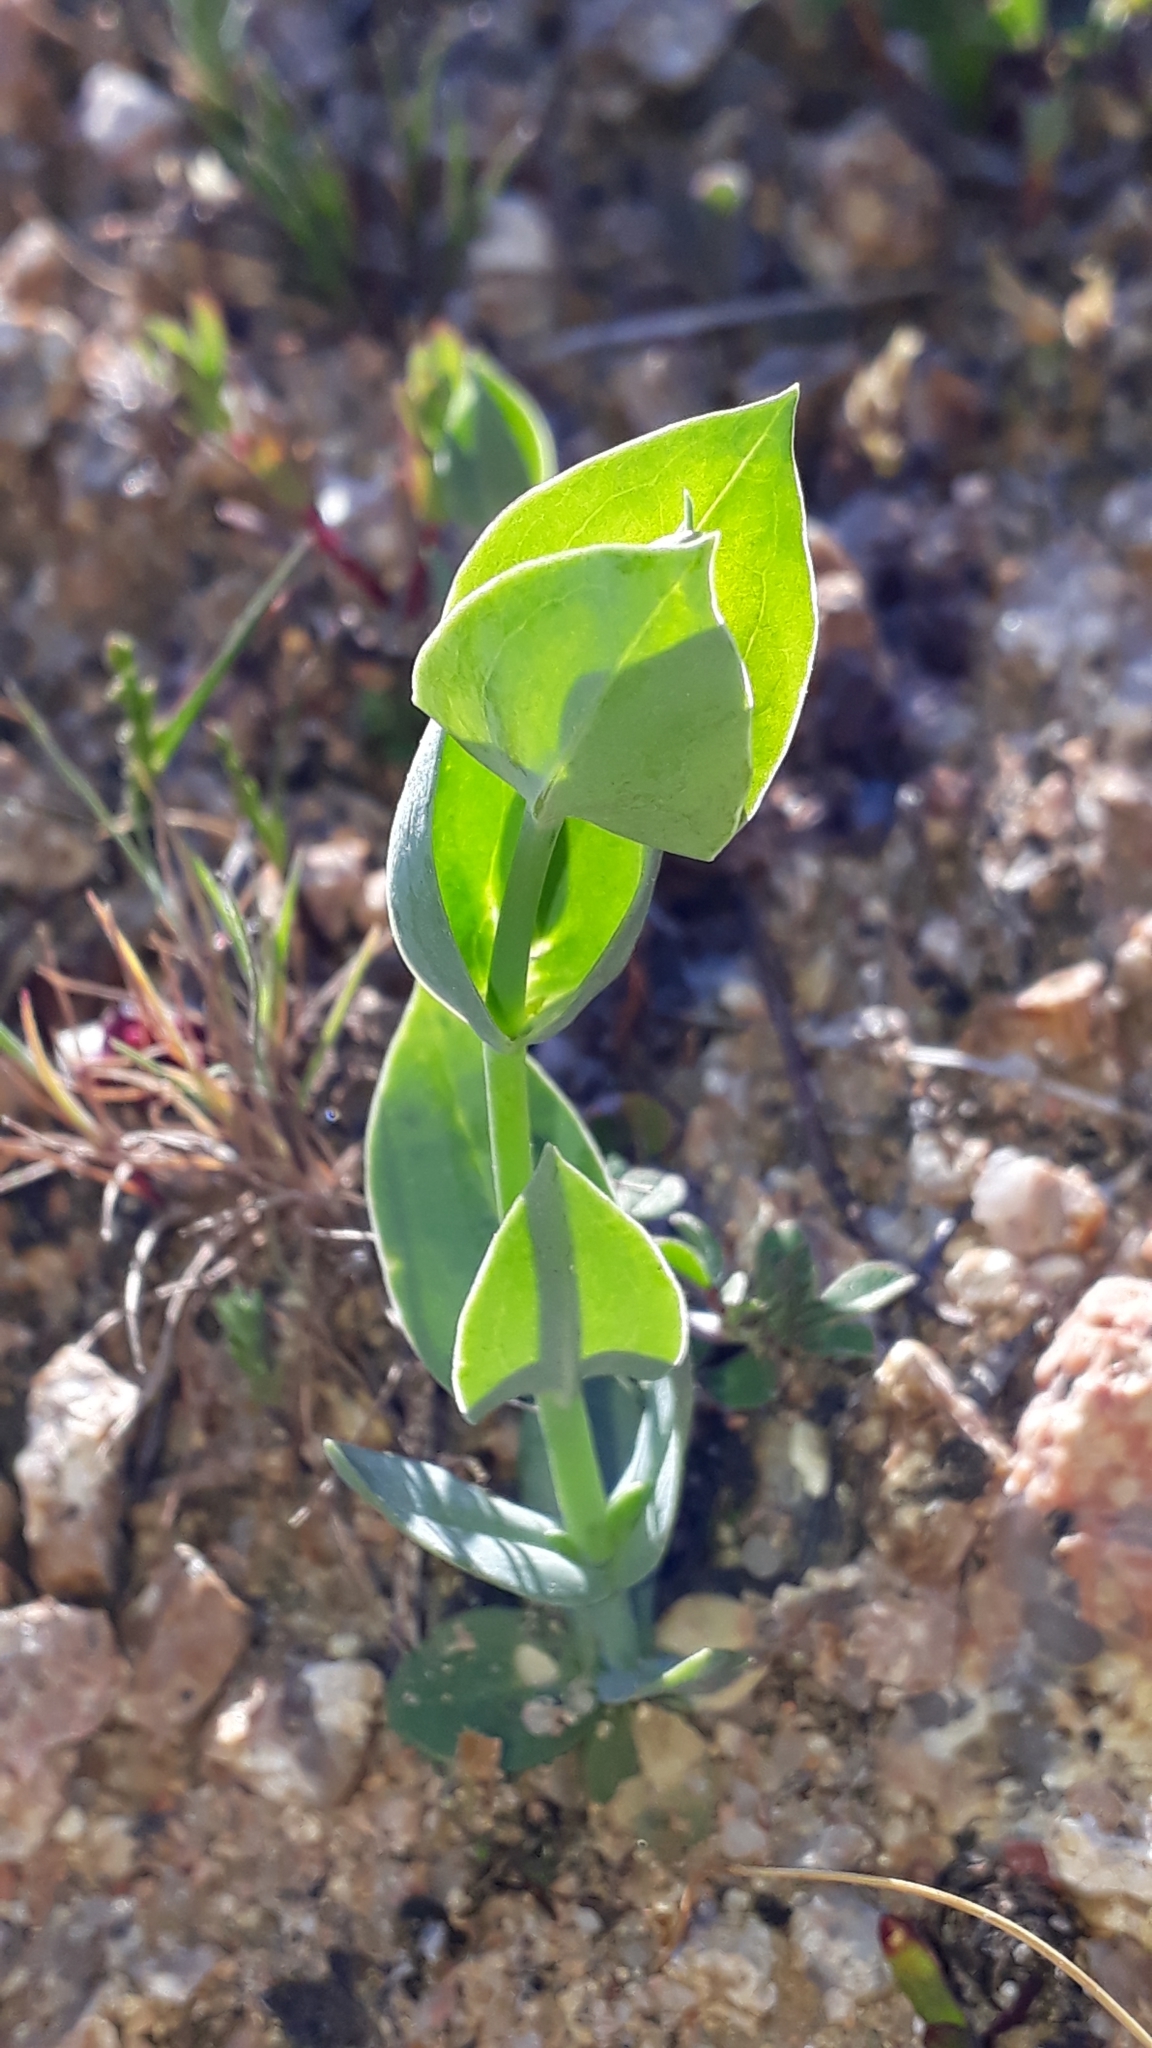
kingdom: Plantae
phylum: Tracheophyta
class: Magnoliopsida
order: Gentianales
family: Gentianaceae
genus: Blackstonia
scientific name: Blackstonia perfoliata
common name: Yellow-wort
